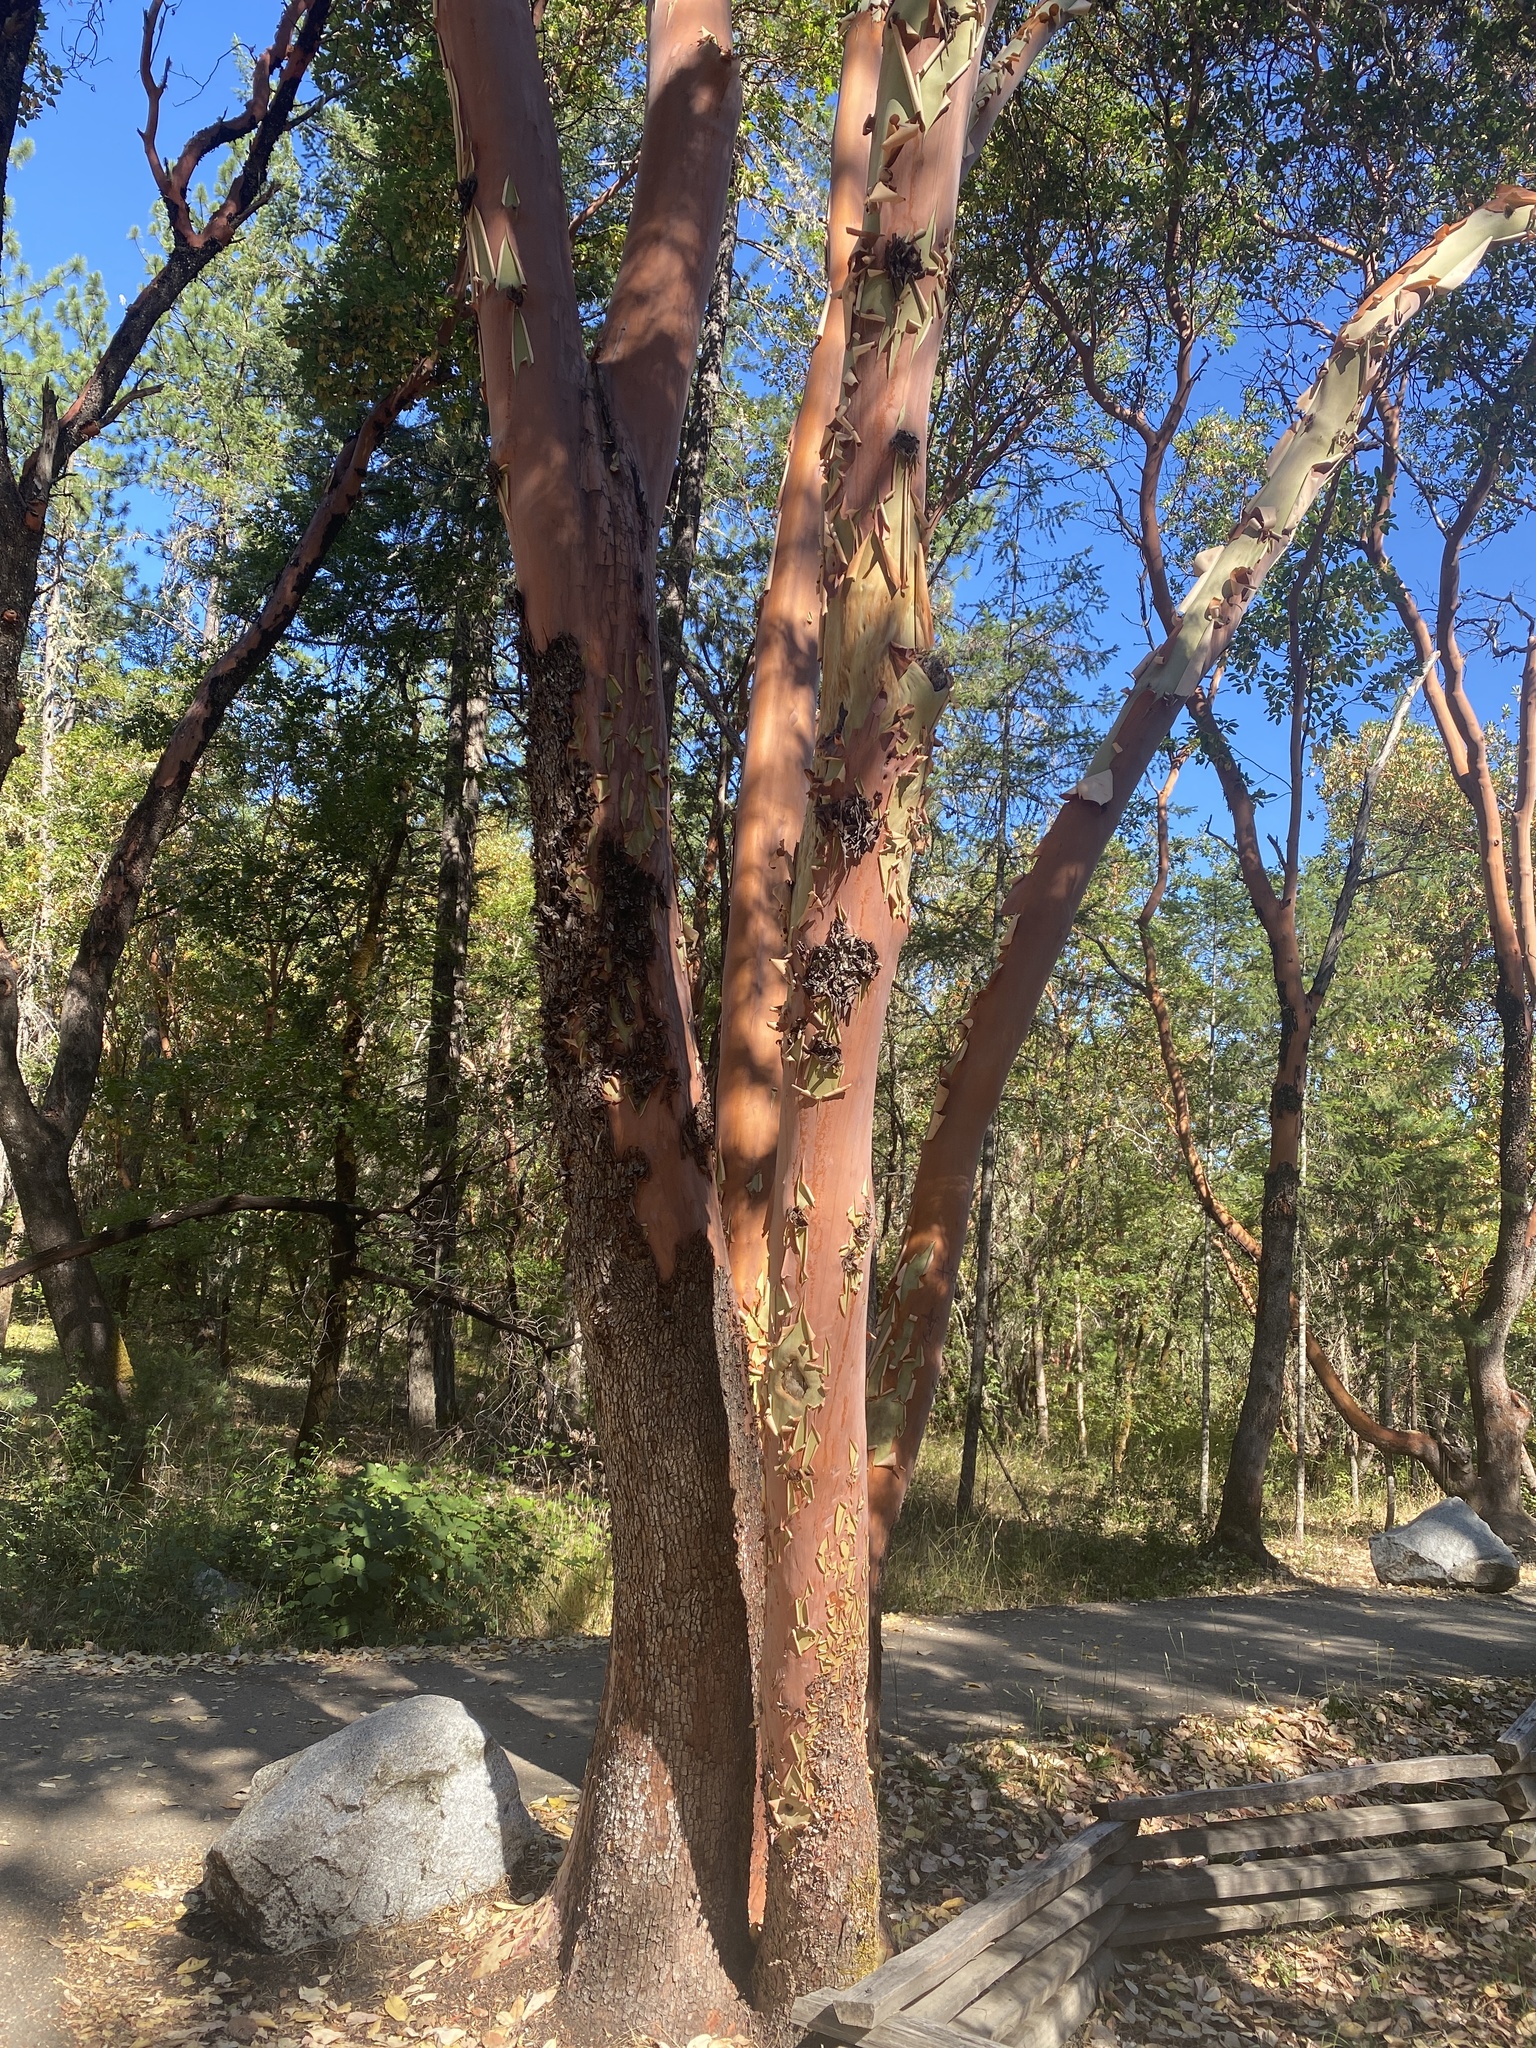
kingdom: Plantae
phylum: Tracheophyta
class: Magnoliopsida
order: Ericales
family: Ericaceae
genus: Arbutus
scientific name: Arbutus menziesii
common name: Pacific madrone
